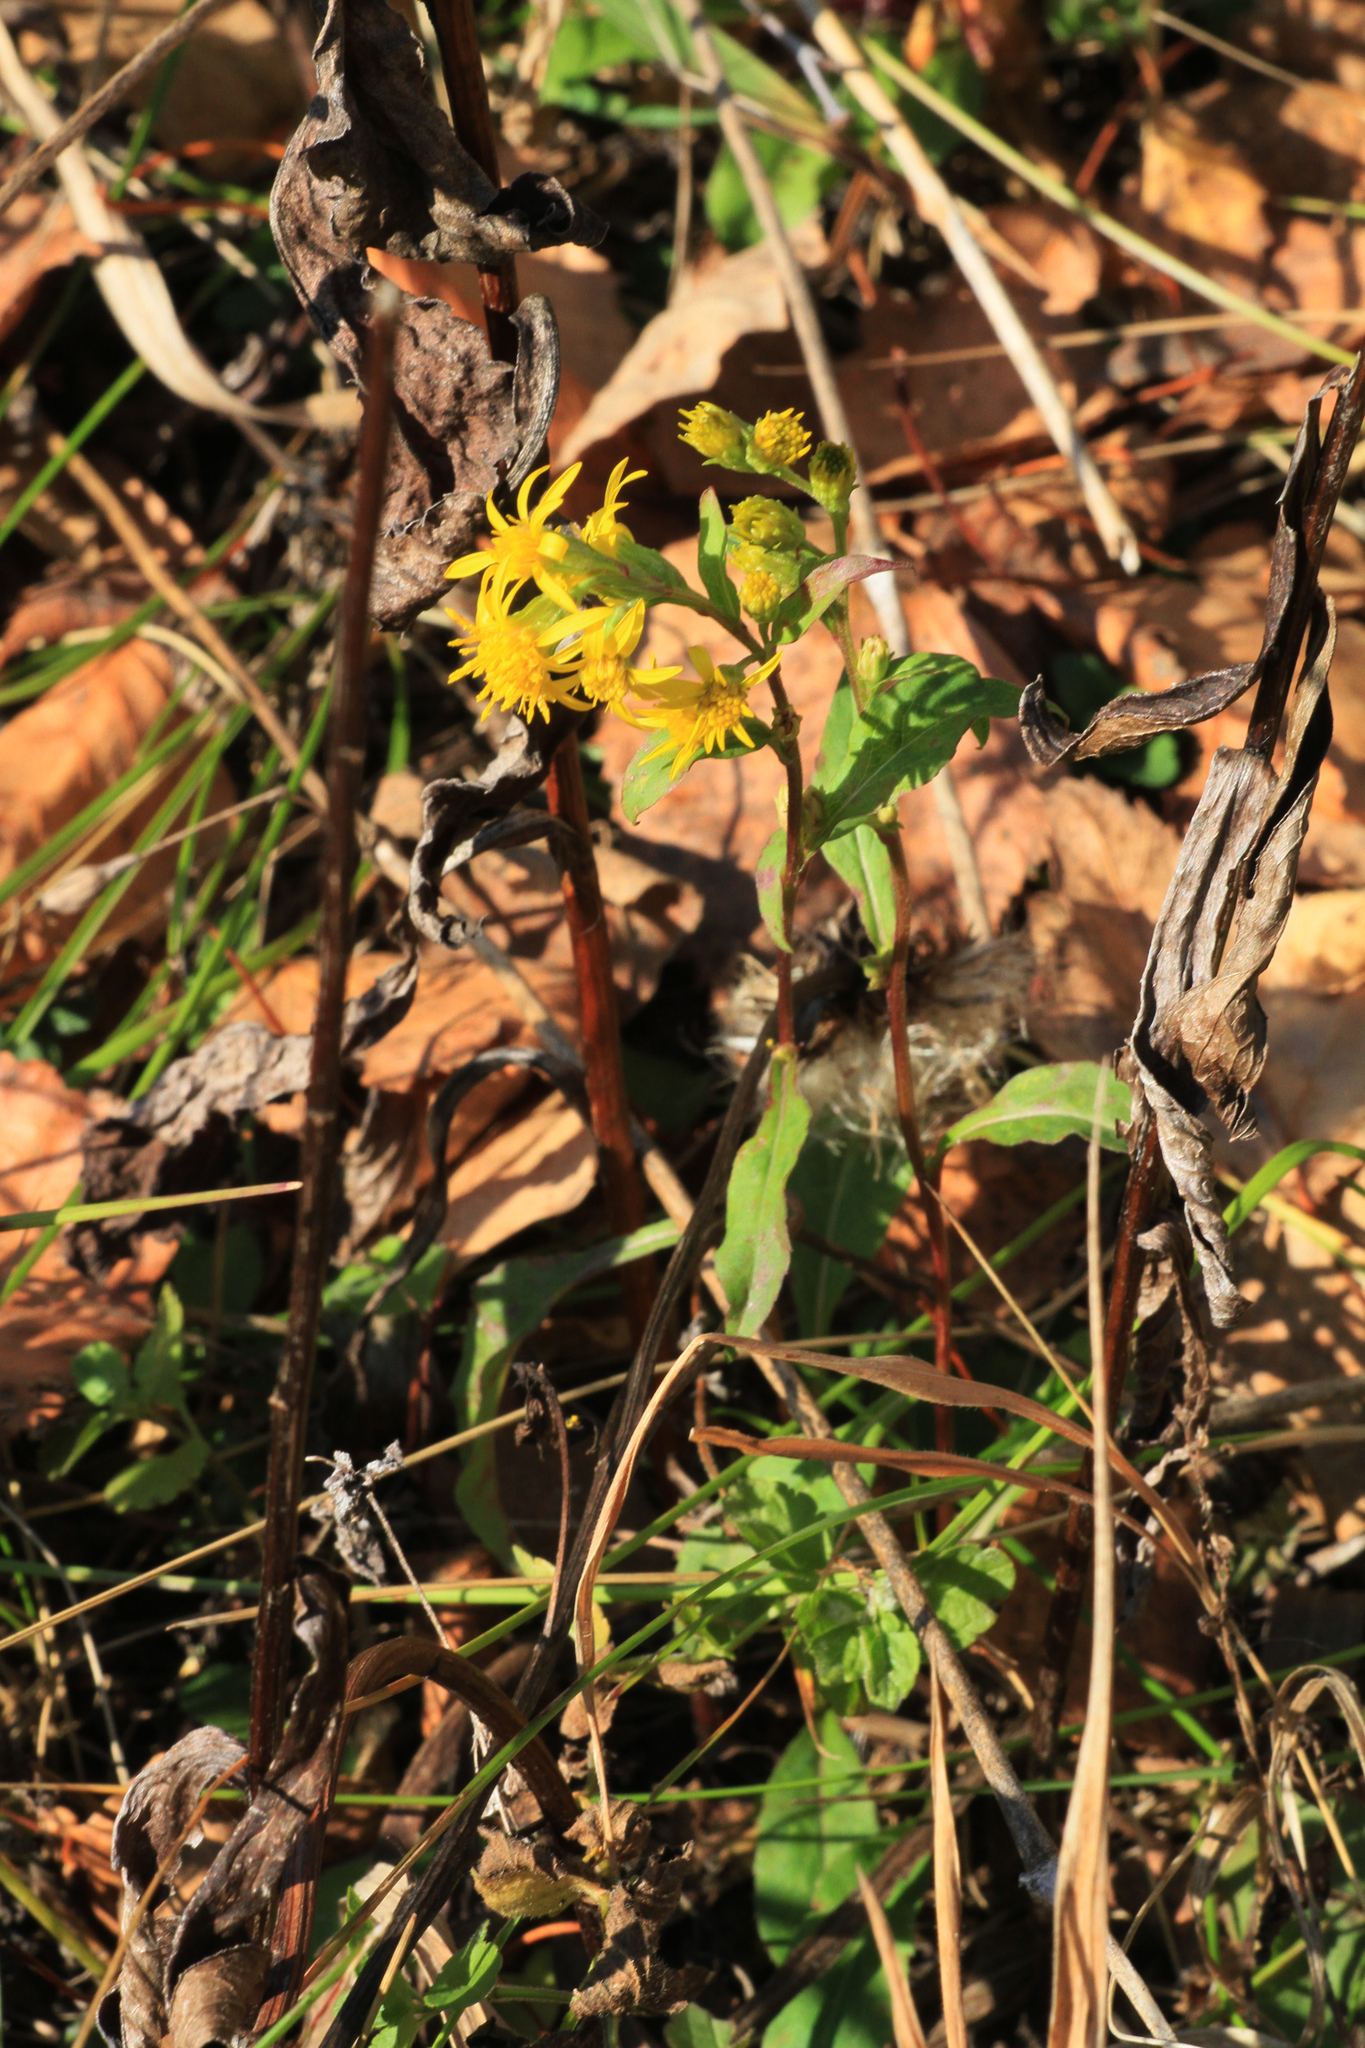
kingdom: Plantae
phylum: Tracheophyta
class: Magnoliopsida
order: Asterales
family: Asteraceae
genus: Solidago
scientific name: Solidago virgaurea
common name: Goldenrod
